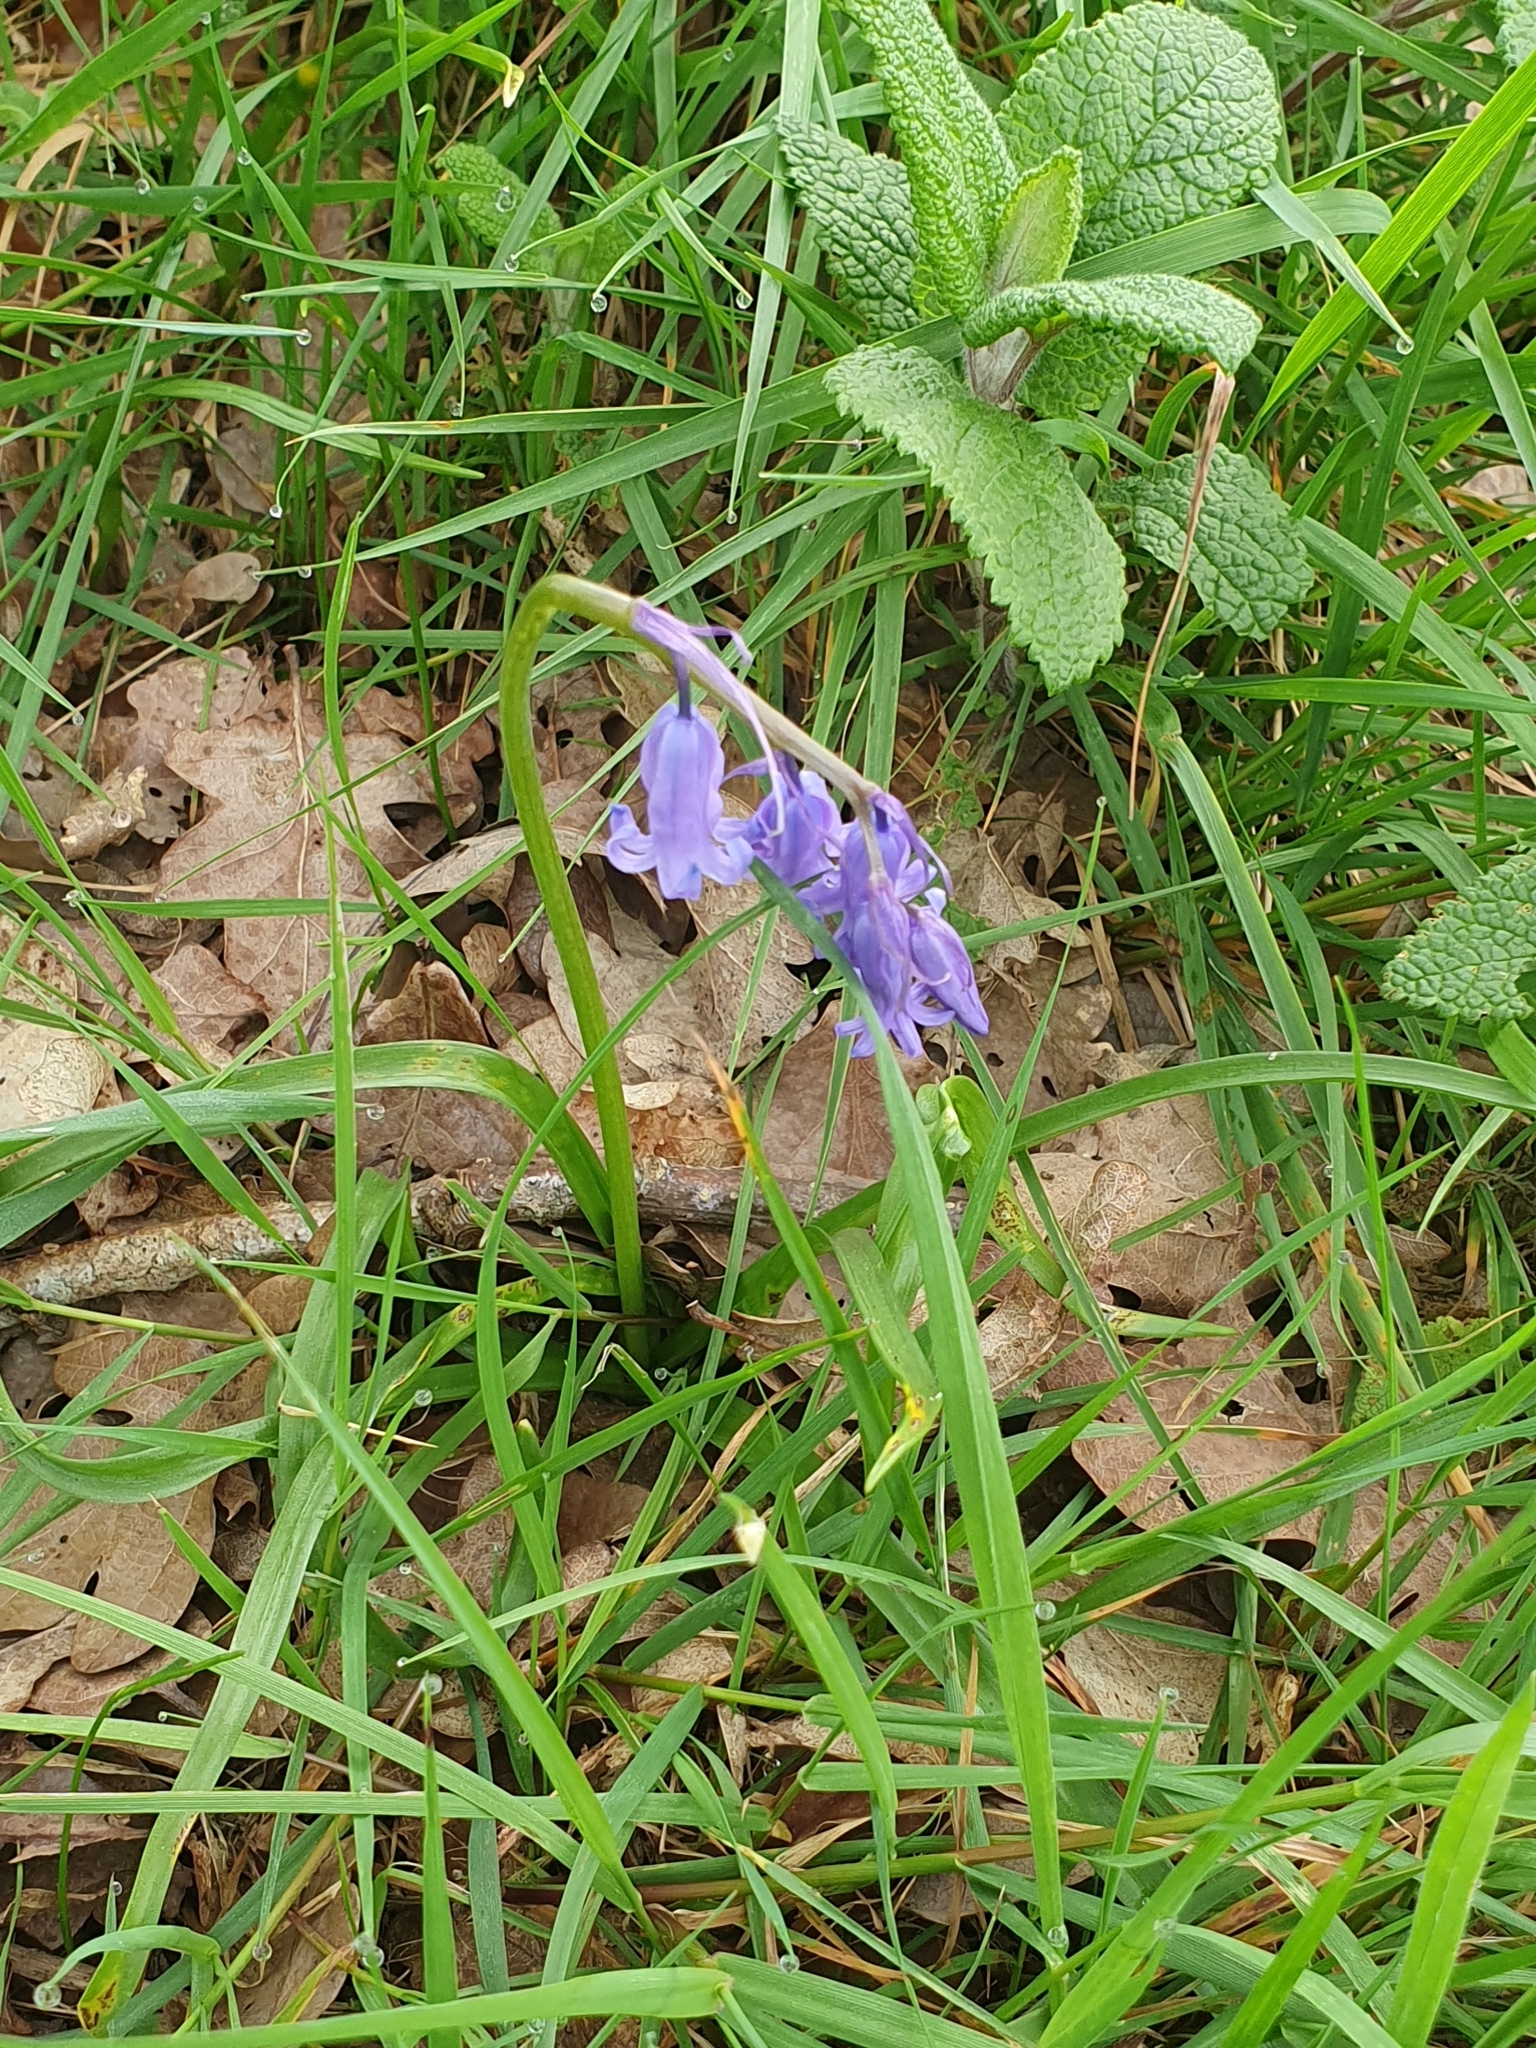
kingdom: Plantae
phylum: Tracheophyta
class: Liliopsida
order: Asparagales
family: Asparagaceae
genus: Hyacinthoides
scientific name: Hyacinthoides non-scripta
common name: Bluebell
